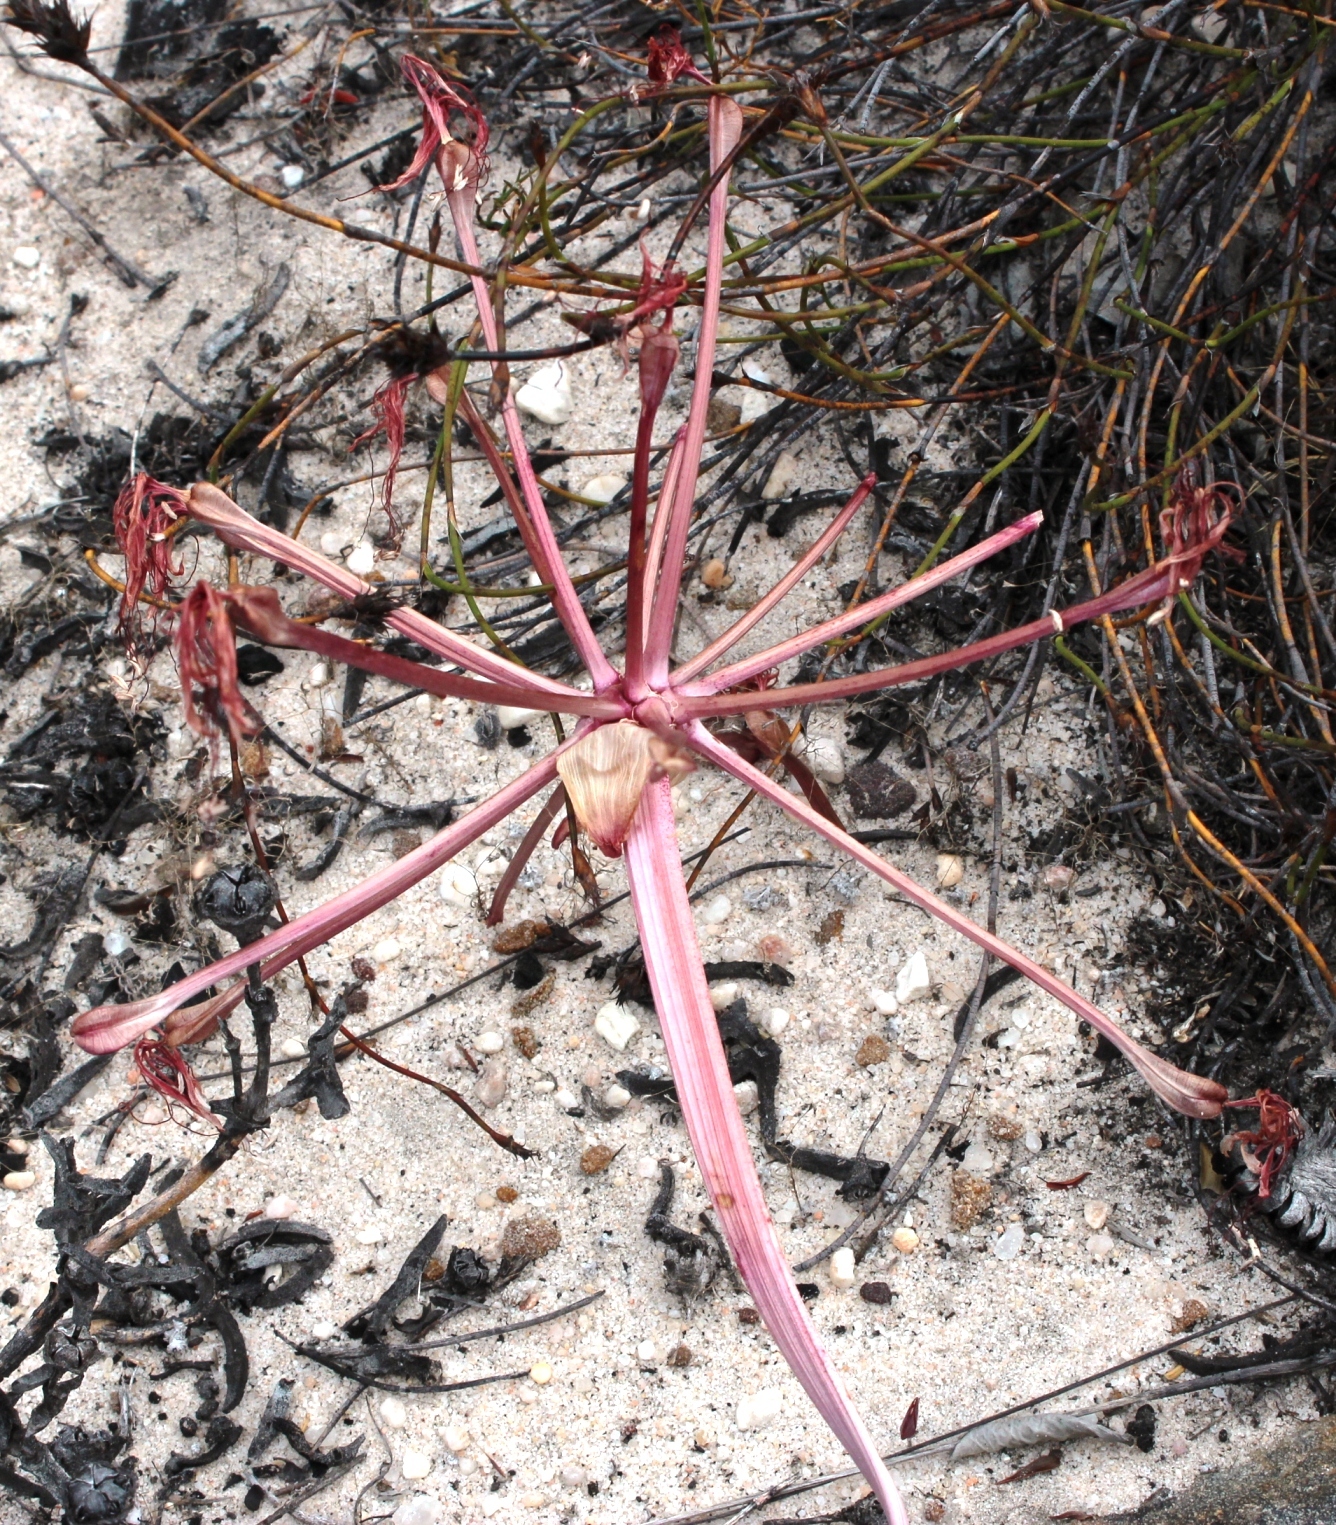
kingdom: Plantae
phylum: Tracheophyta
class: Liliopsida
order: Asparagales
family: Amaryllidaceae
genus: Brunsvigia
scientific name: Brunsvigia orientalis
